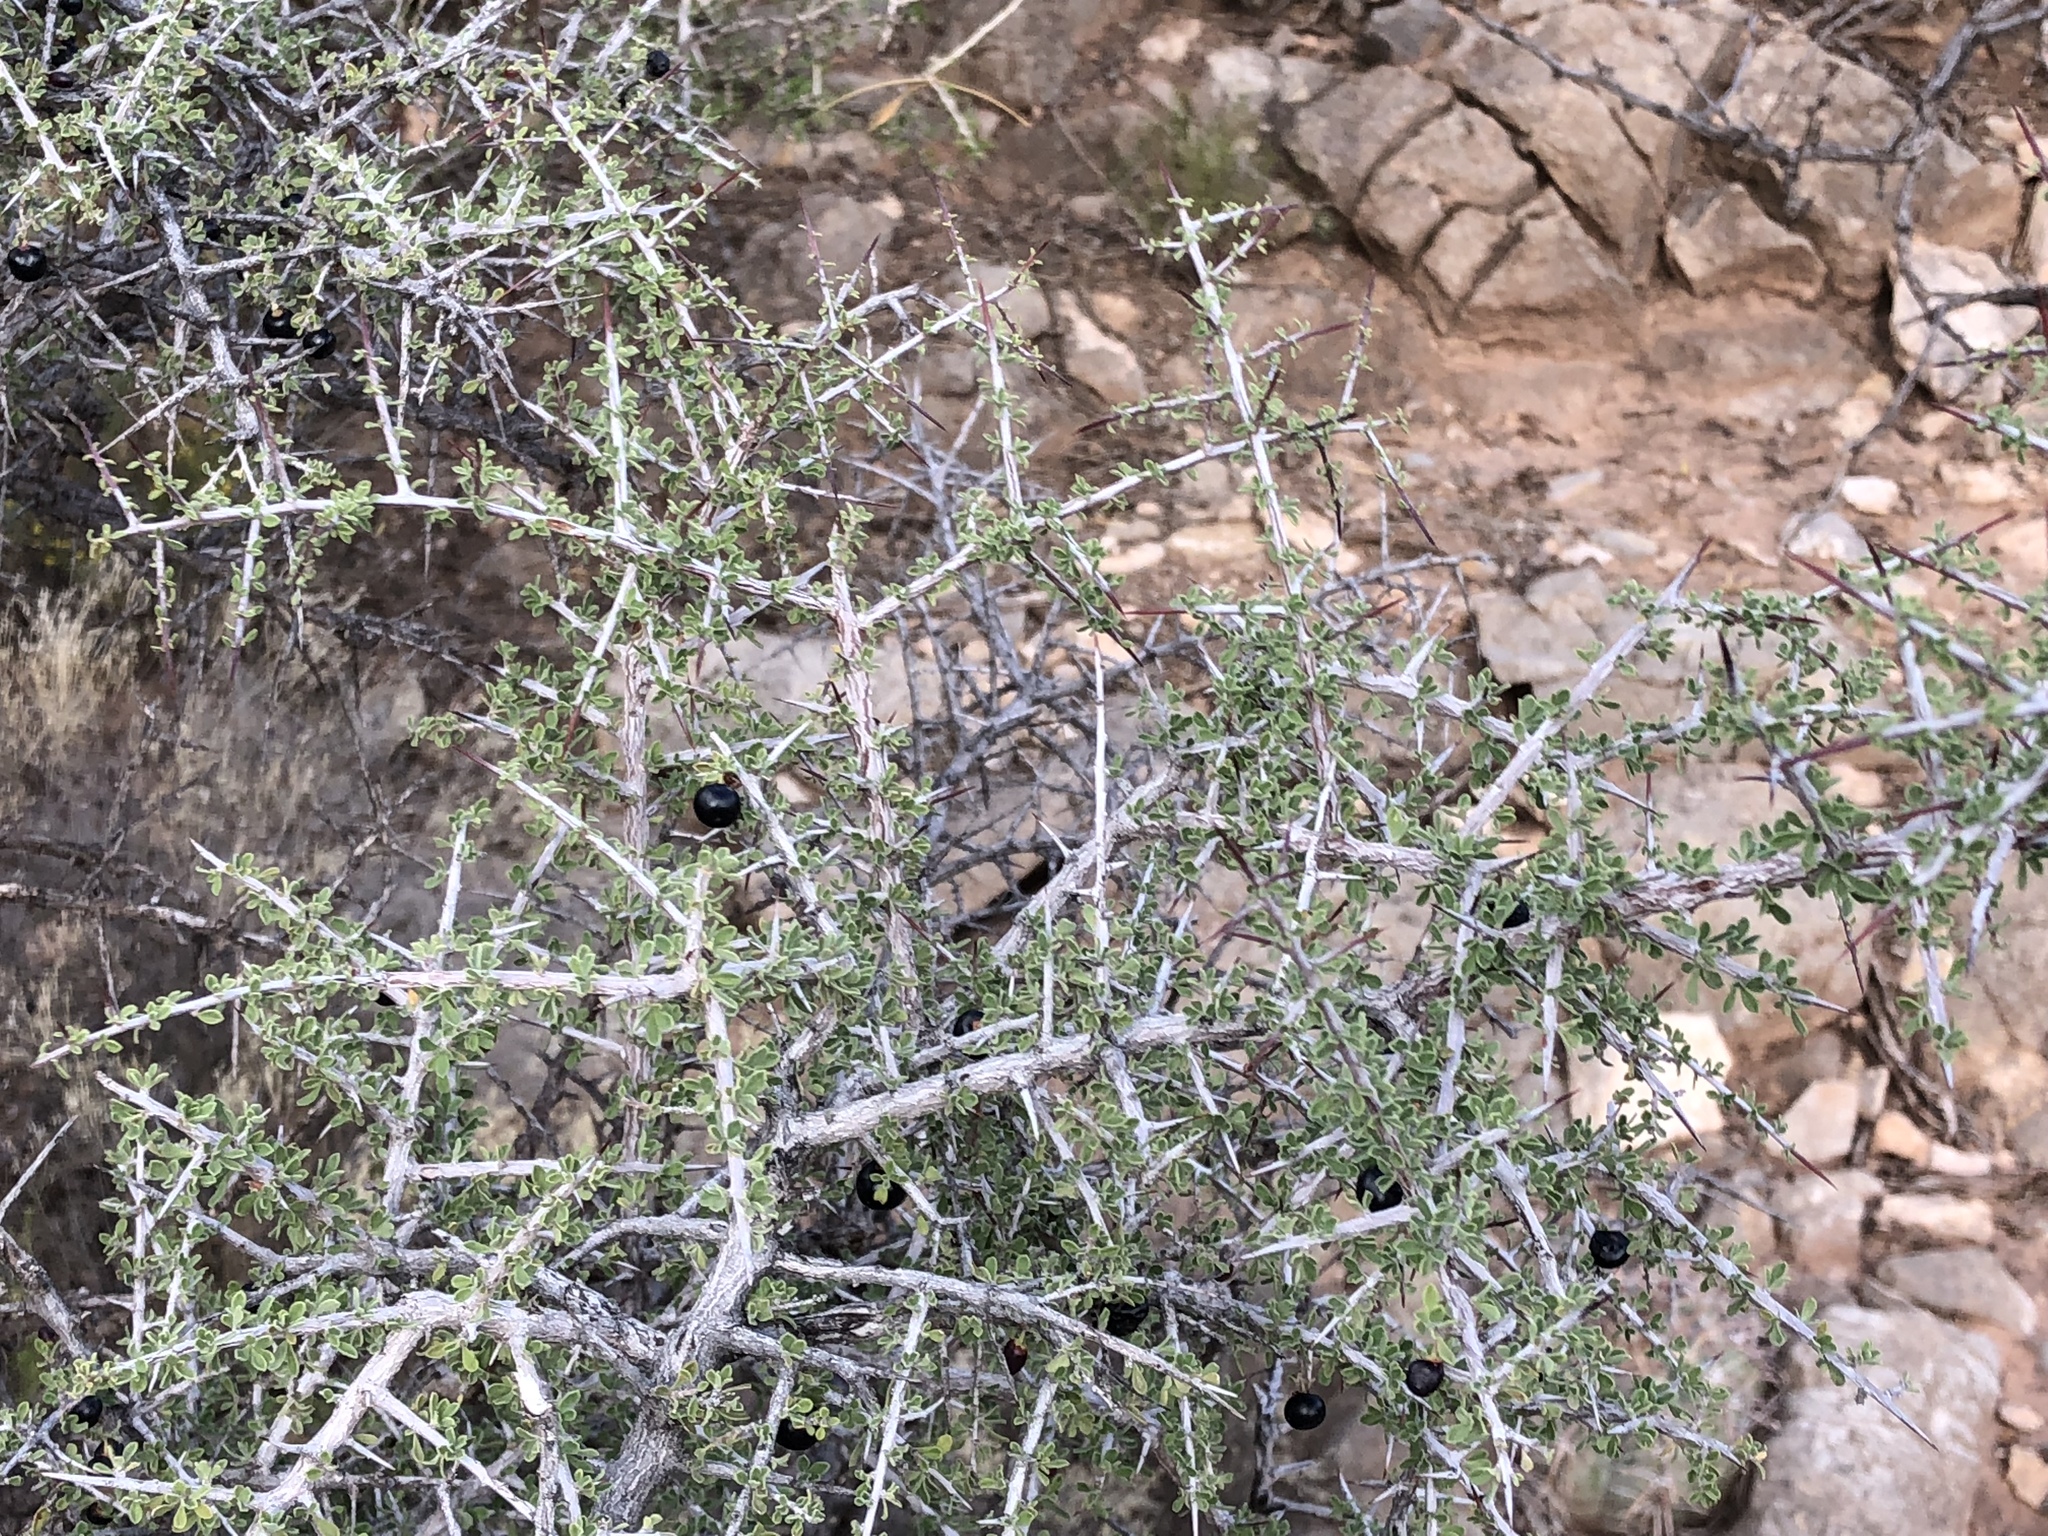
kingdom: Plantae
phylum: Tracheophyta
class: Magnoliopsida
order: Rosales
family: Rhamnaceae
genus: Condalia
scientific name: Condalia warnockii
